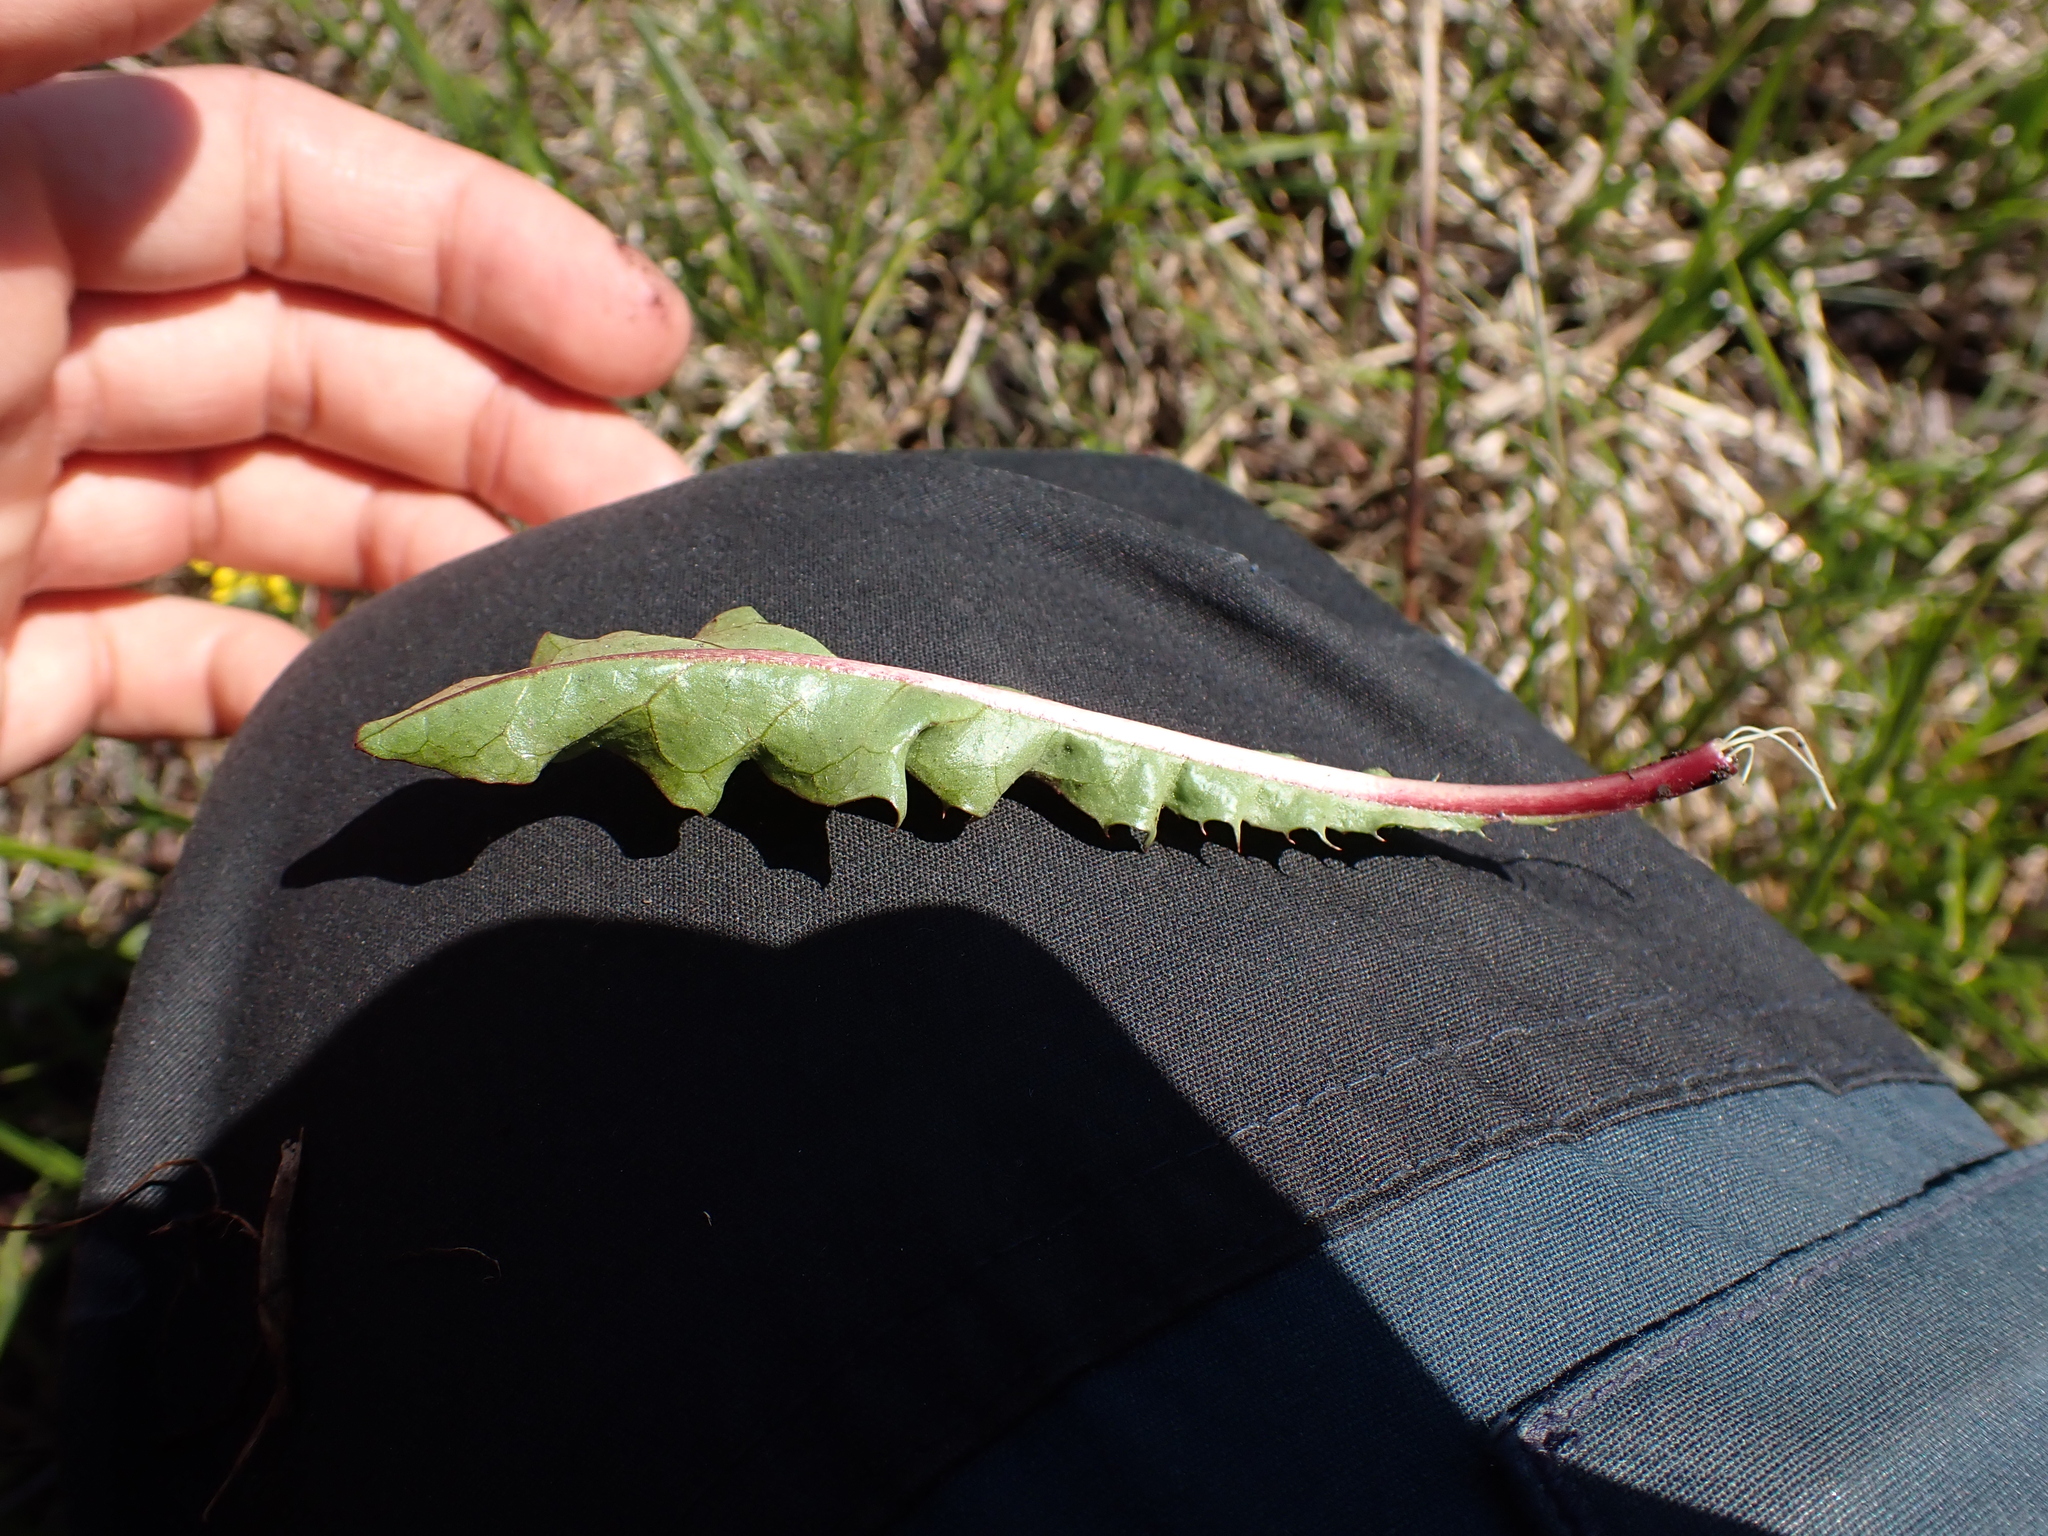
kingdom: Plantae
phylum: Tracheophyta
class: Magnoliopsida
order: Asterales
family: Asteraceae
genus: Taraxacum
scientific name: Taraxacum faeroense
